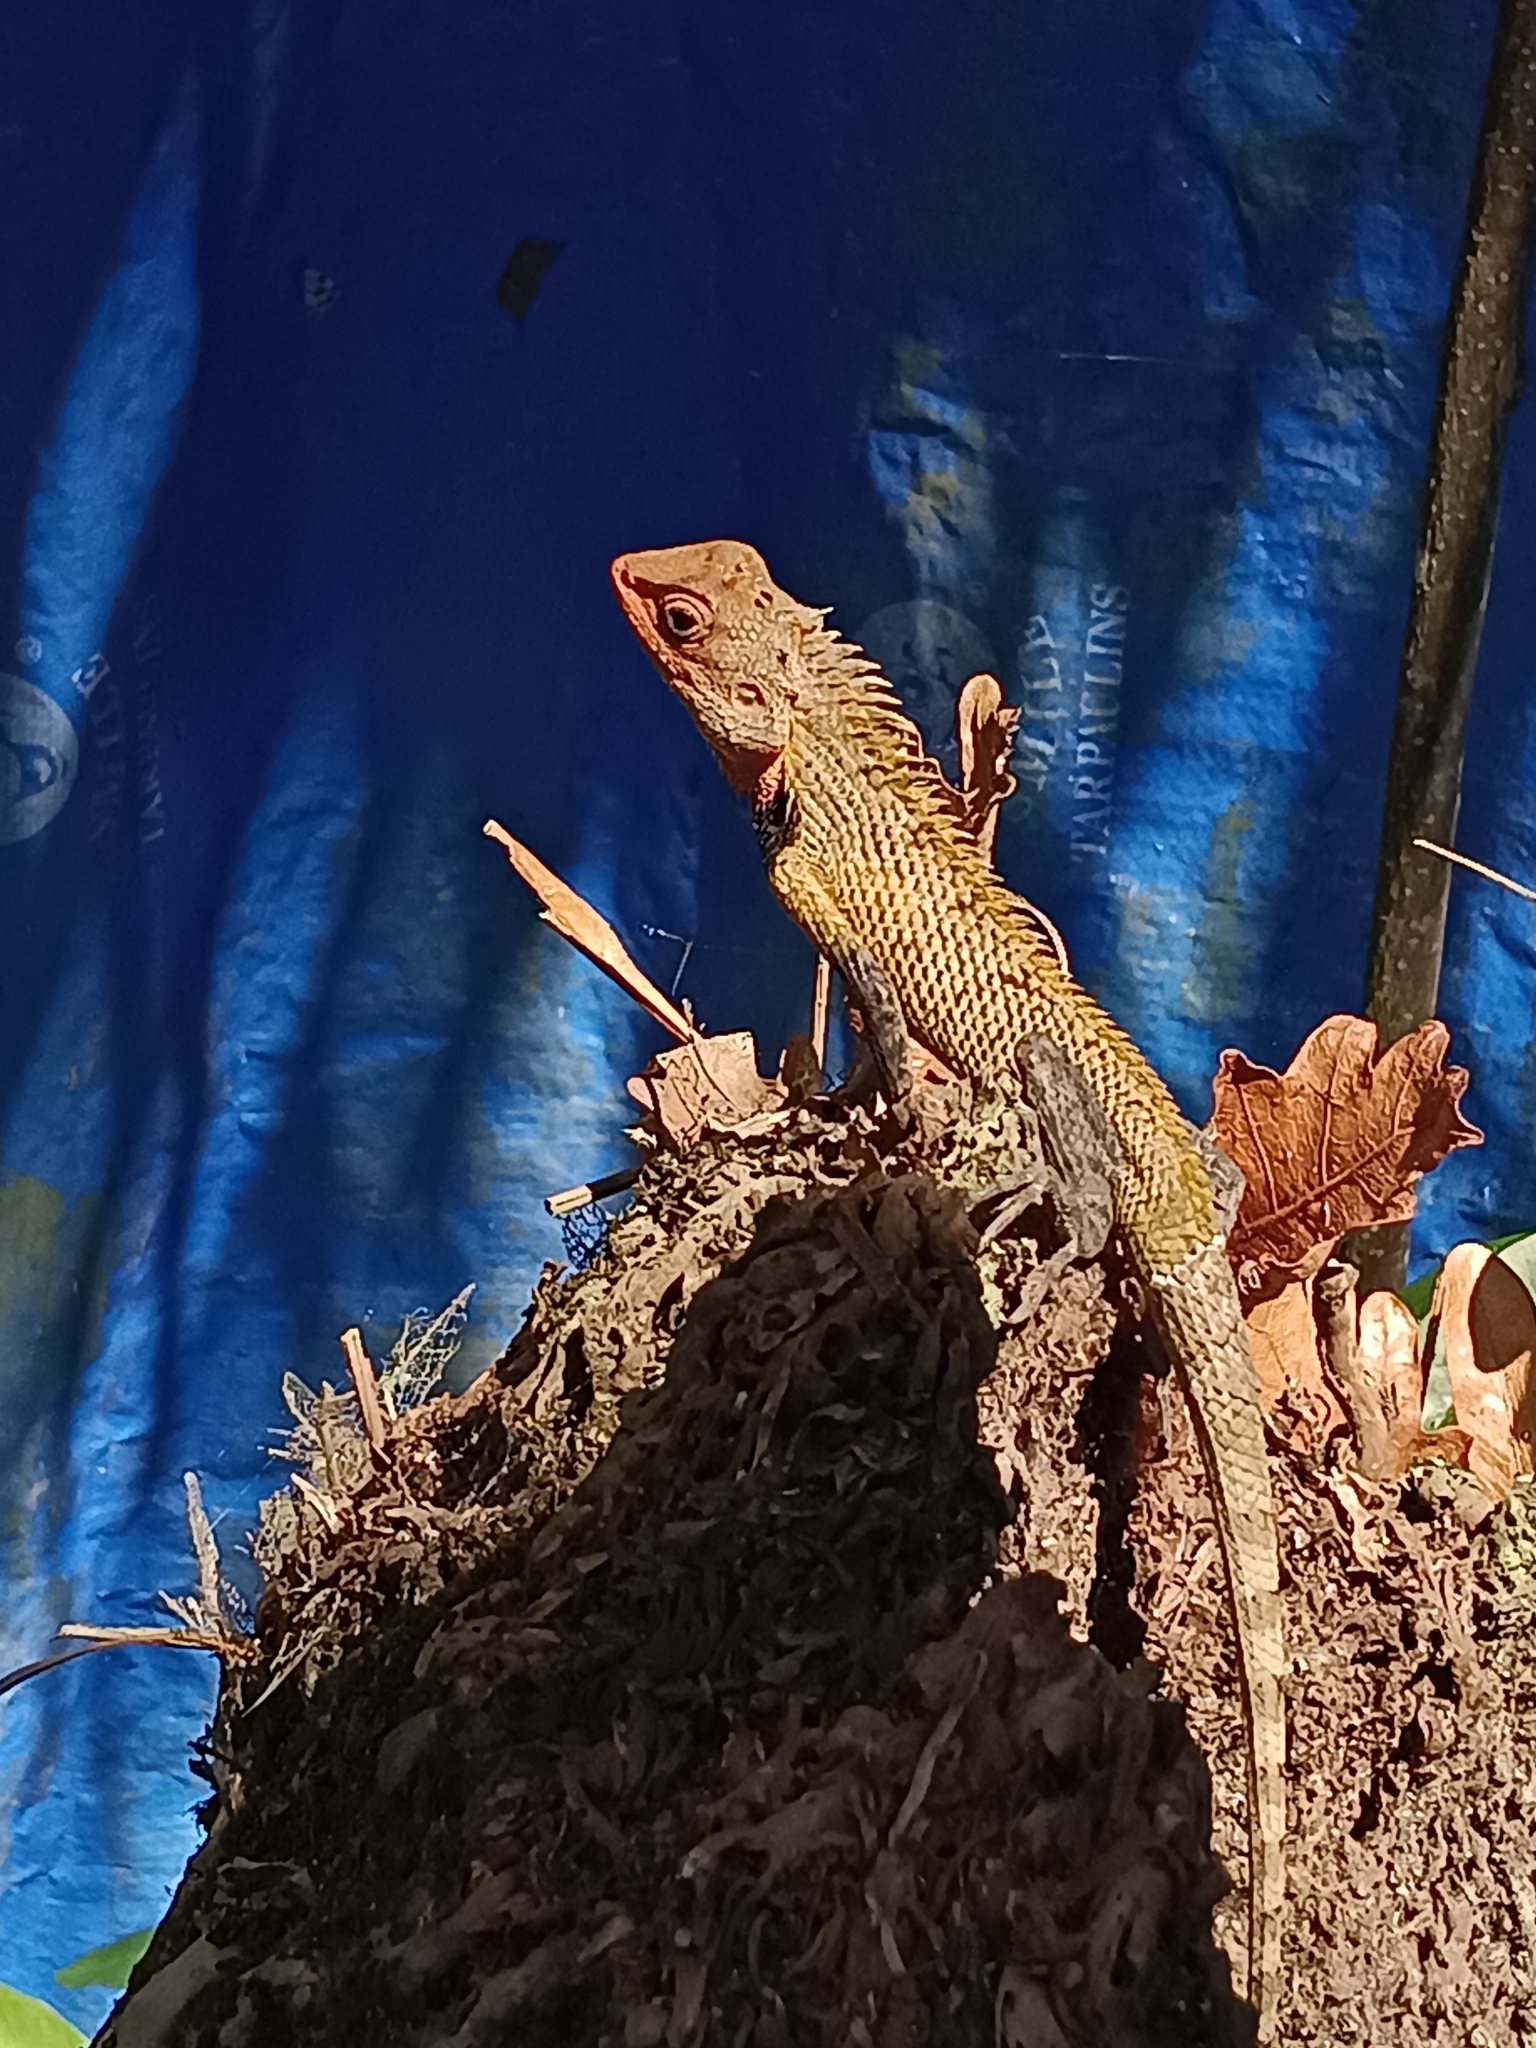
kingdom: Animalia
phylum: Chordata
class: Squamata
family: Agamidae
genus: Calotes
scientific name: Calotes versicolor
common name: Oriental garden lizard
